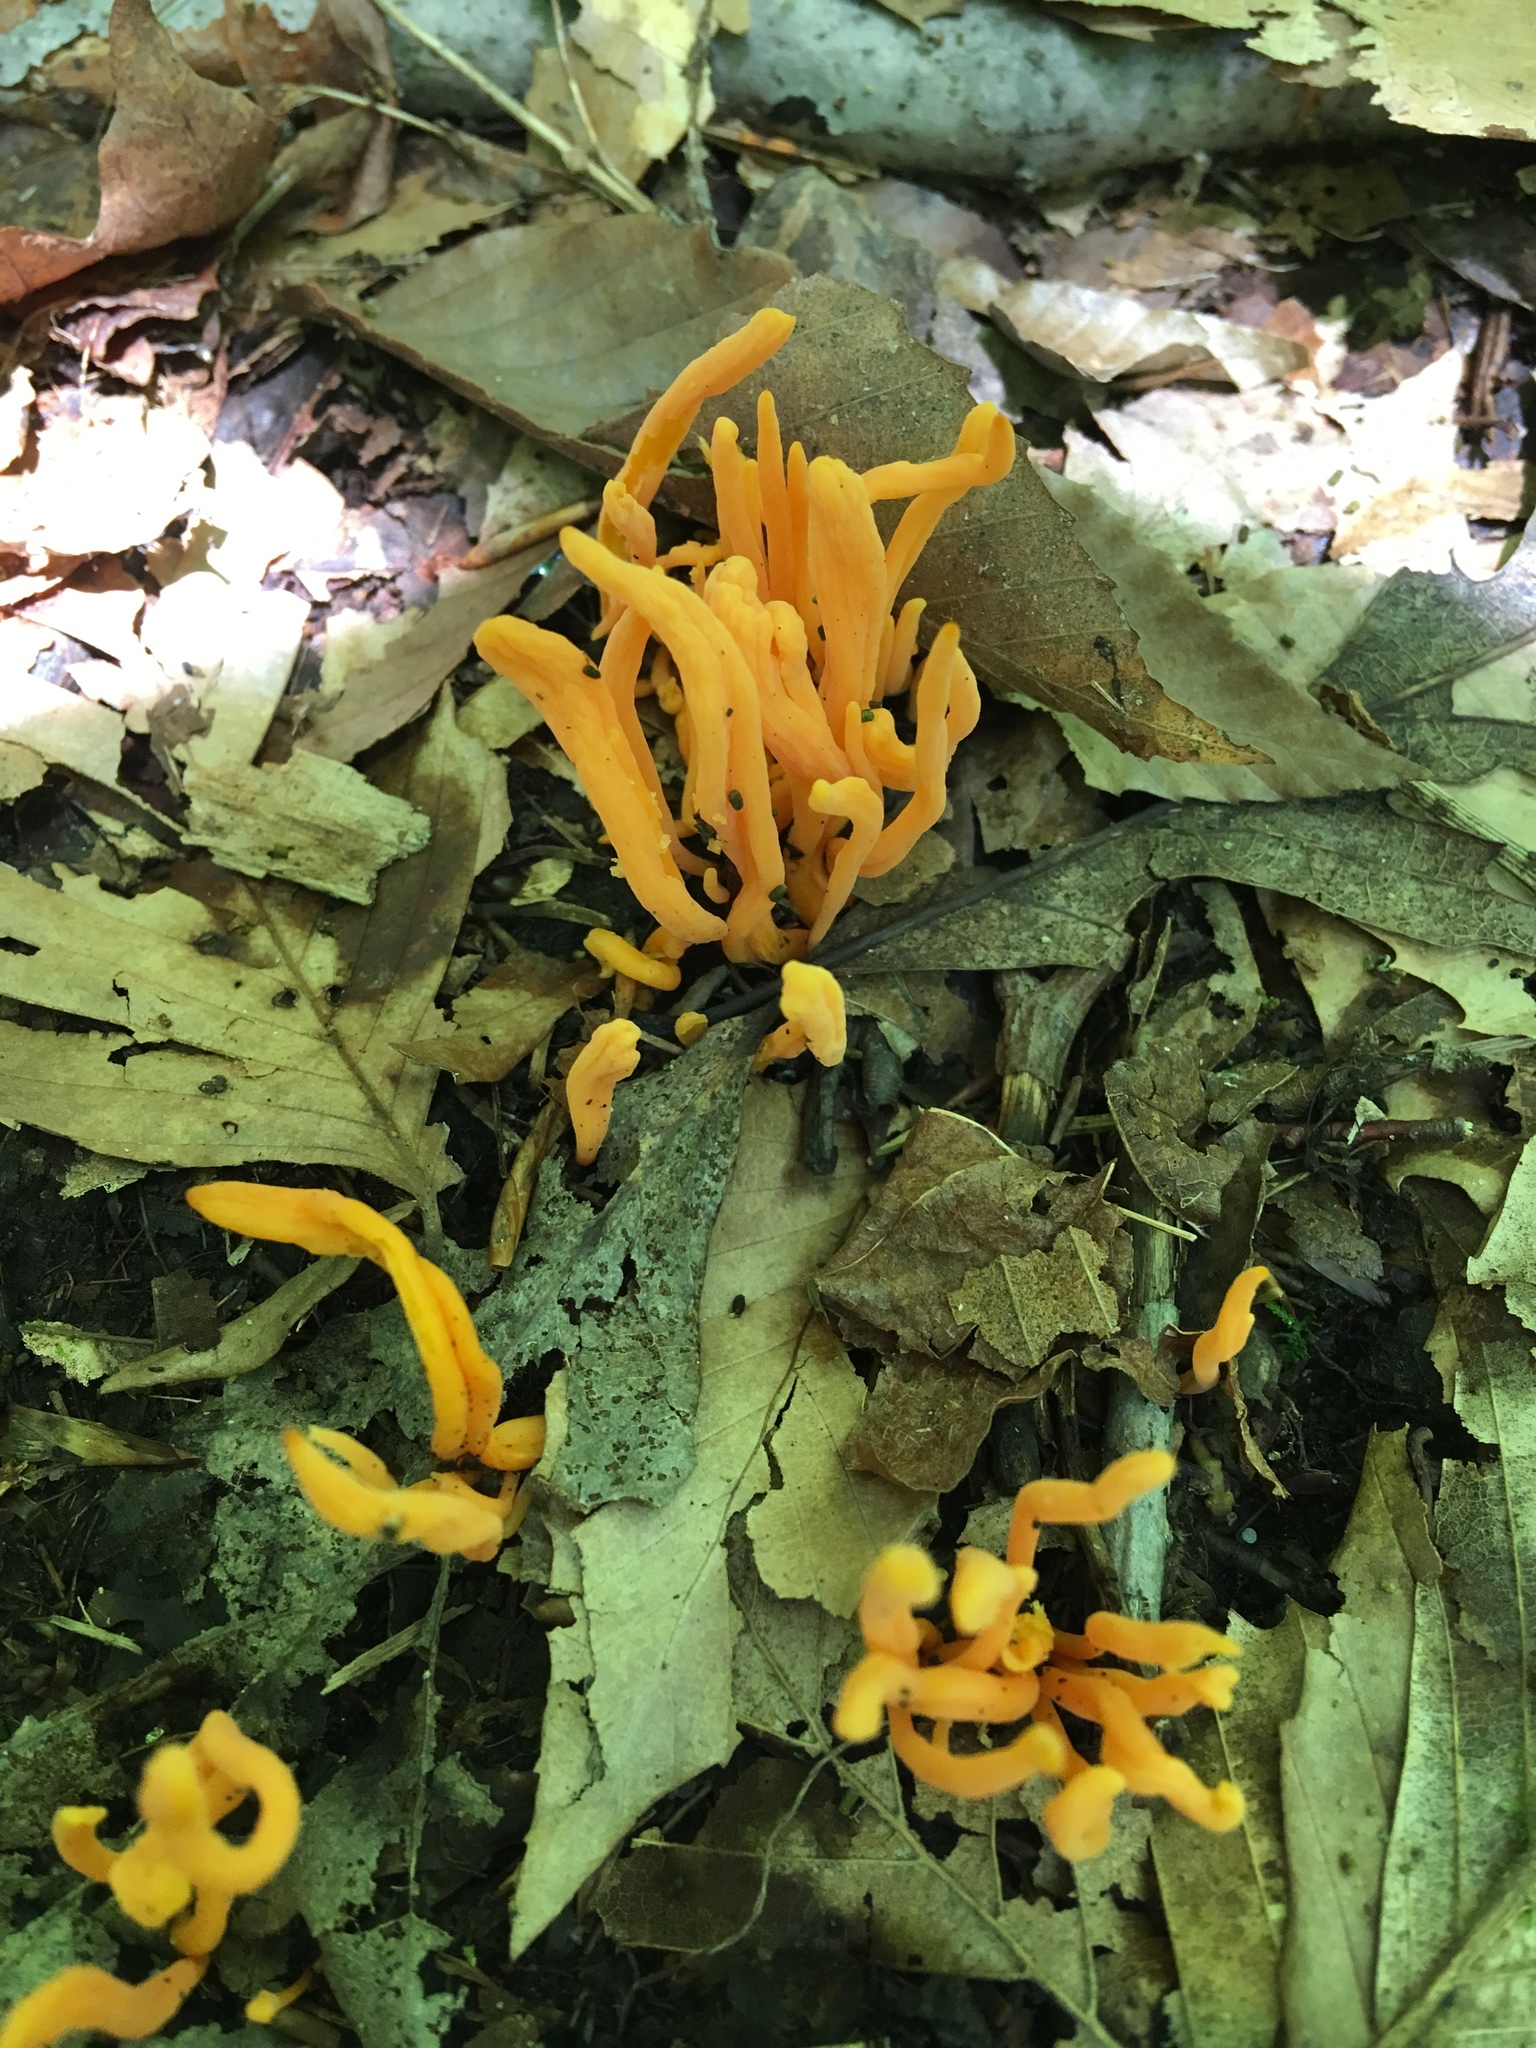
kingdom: Fungi
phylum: Basidiomycota
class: Agaricomycetes
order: Agaricales
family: Clavariaceae
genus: Clavulinopsis
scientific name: Clavulinopsis aurantiocinnabarina
